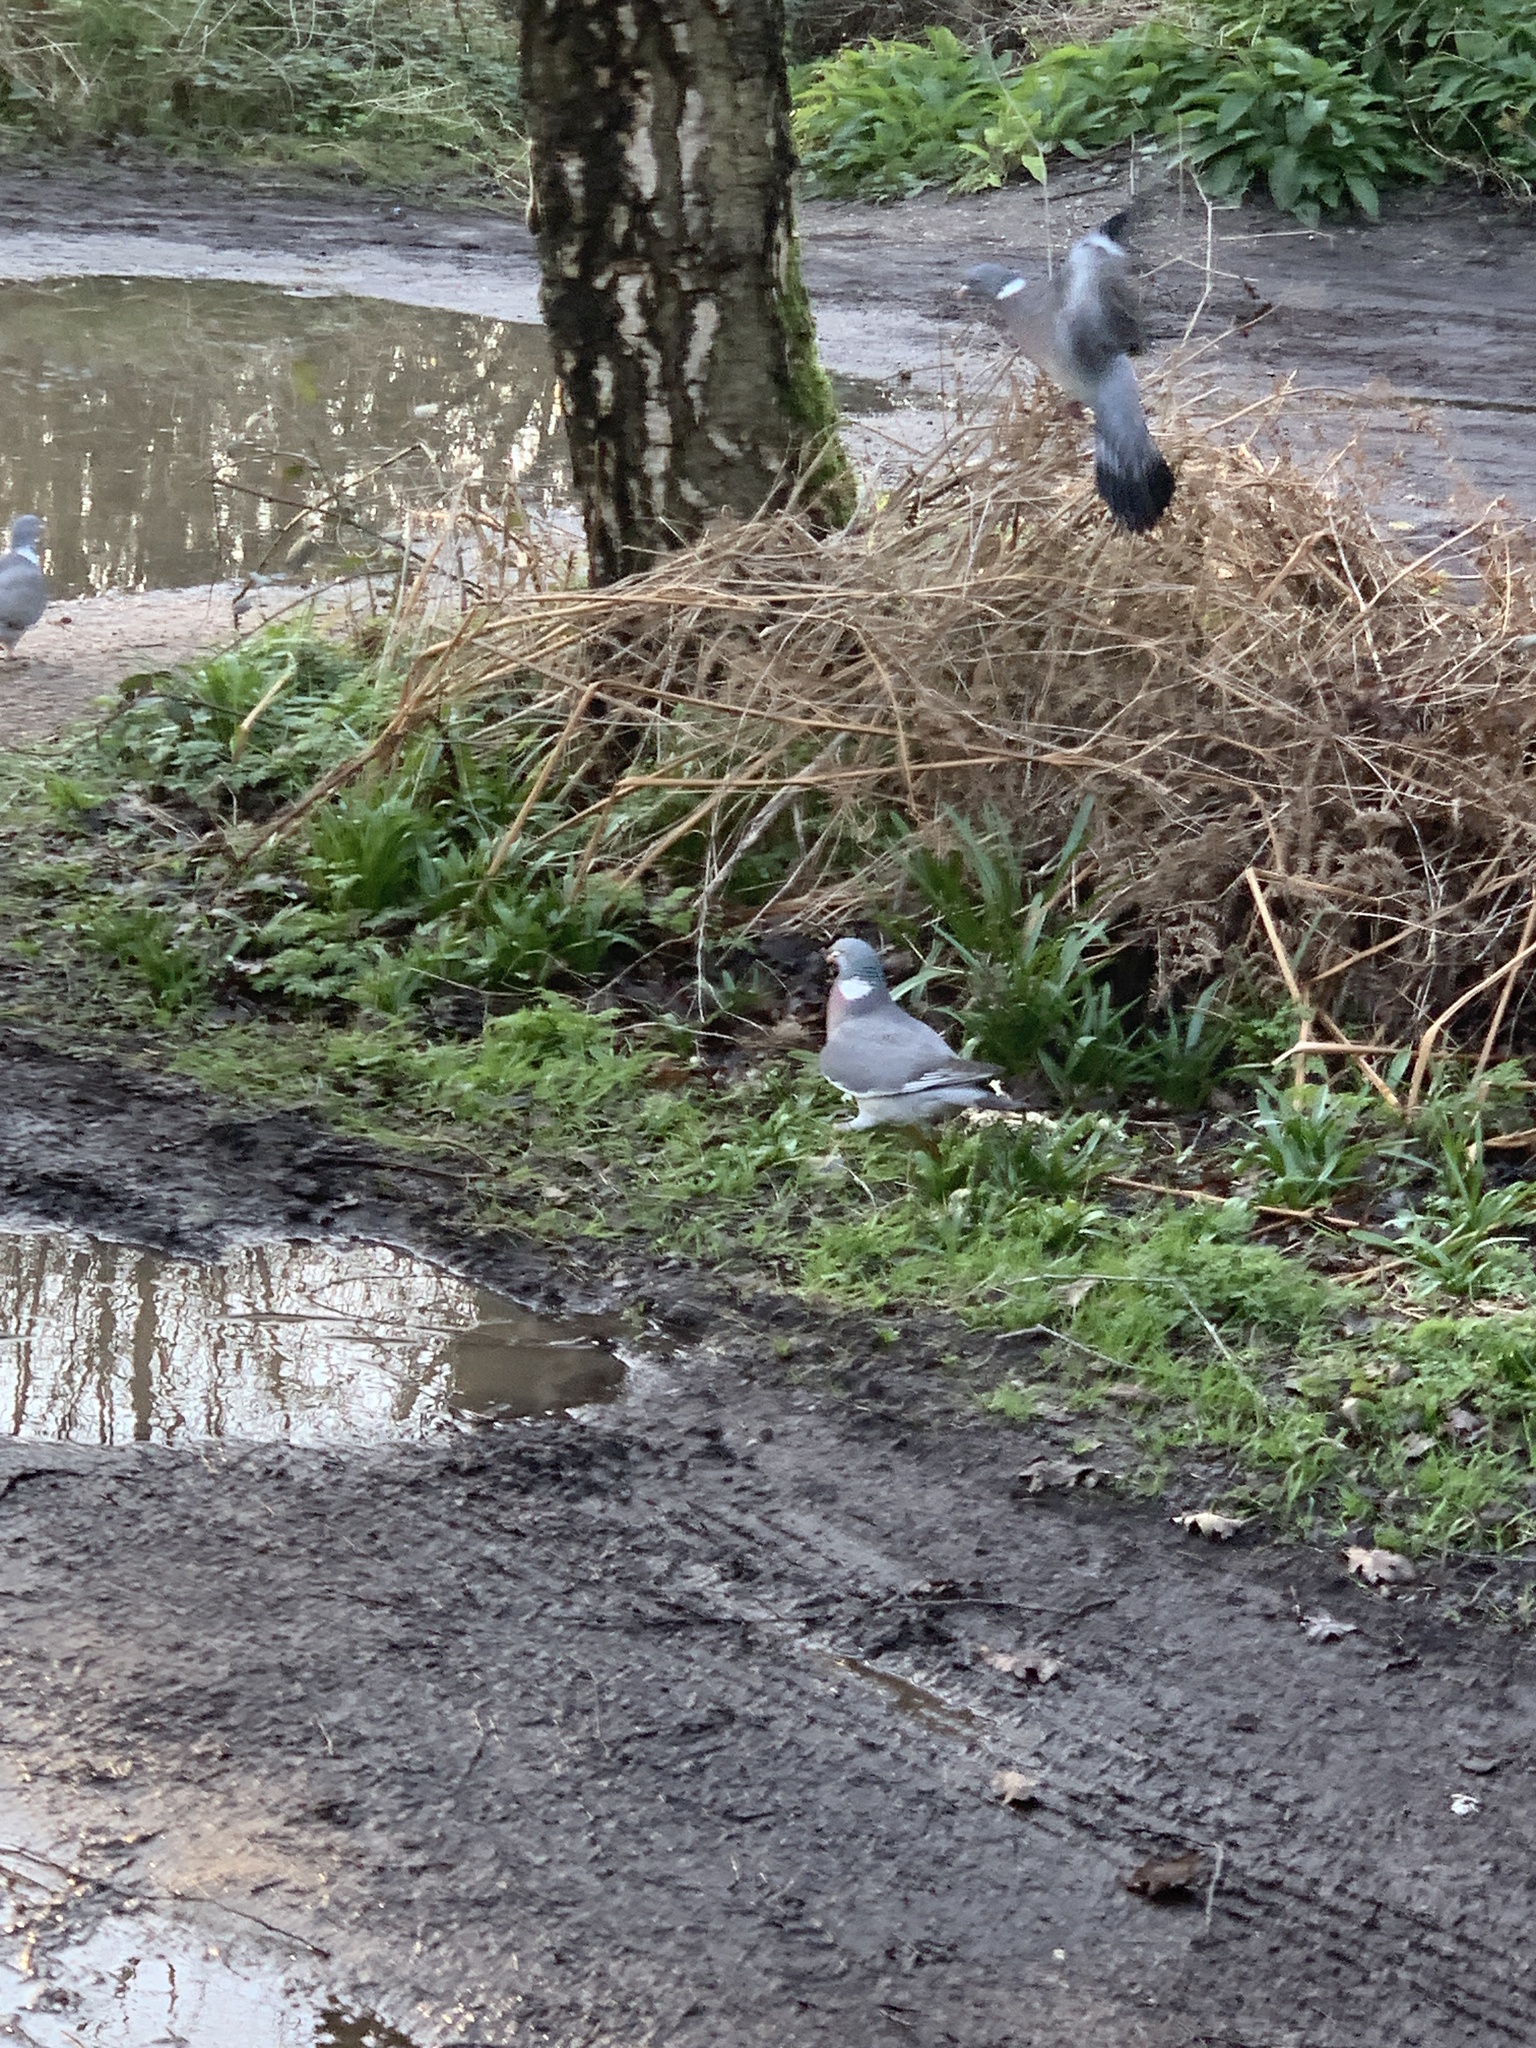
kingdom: Animalia
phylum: Chordata
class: Aves
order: Columbiformes
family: Columbidae
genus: Columba
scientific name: Columba palumbus
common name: Common wood pigeon
